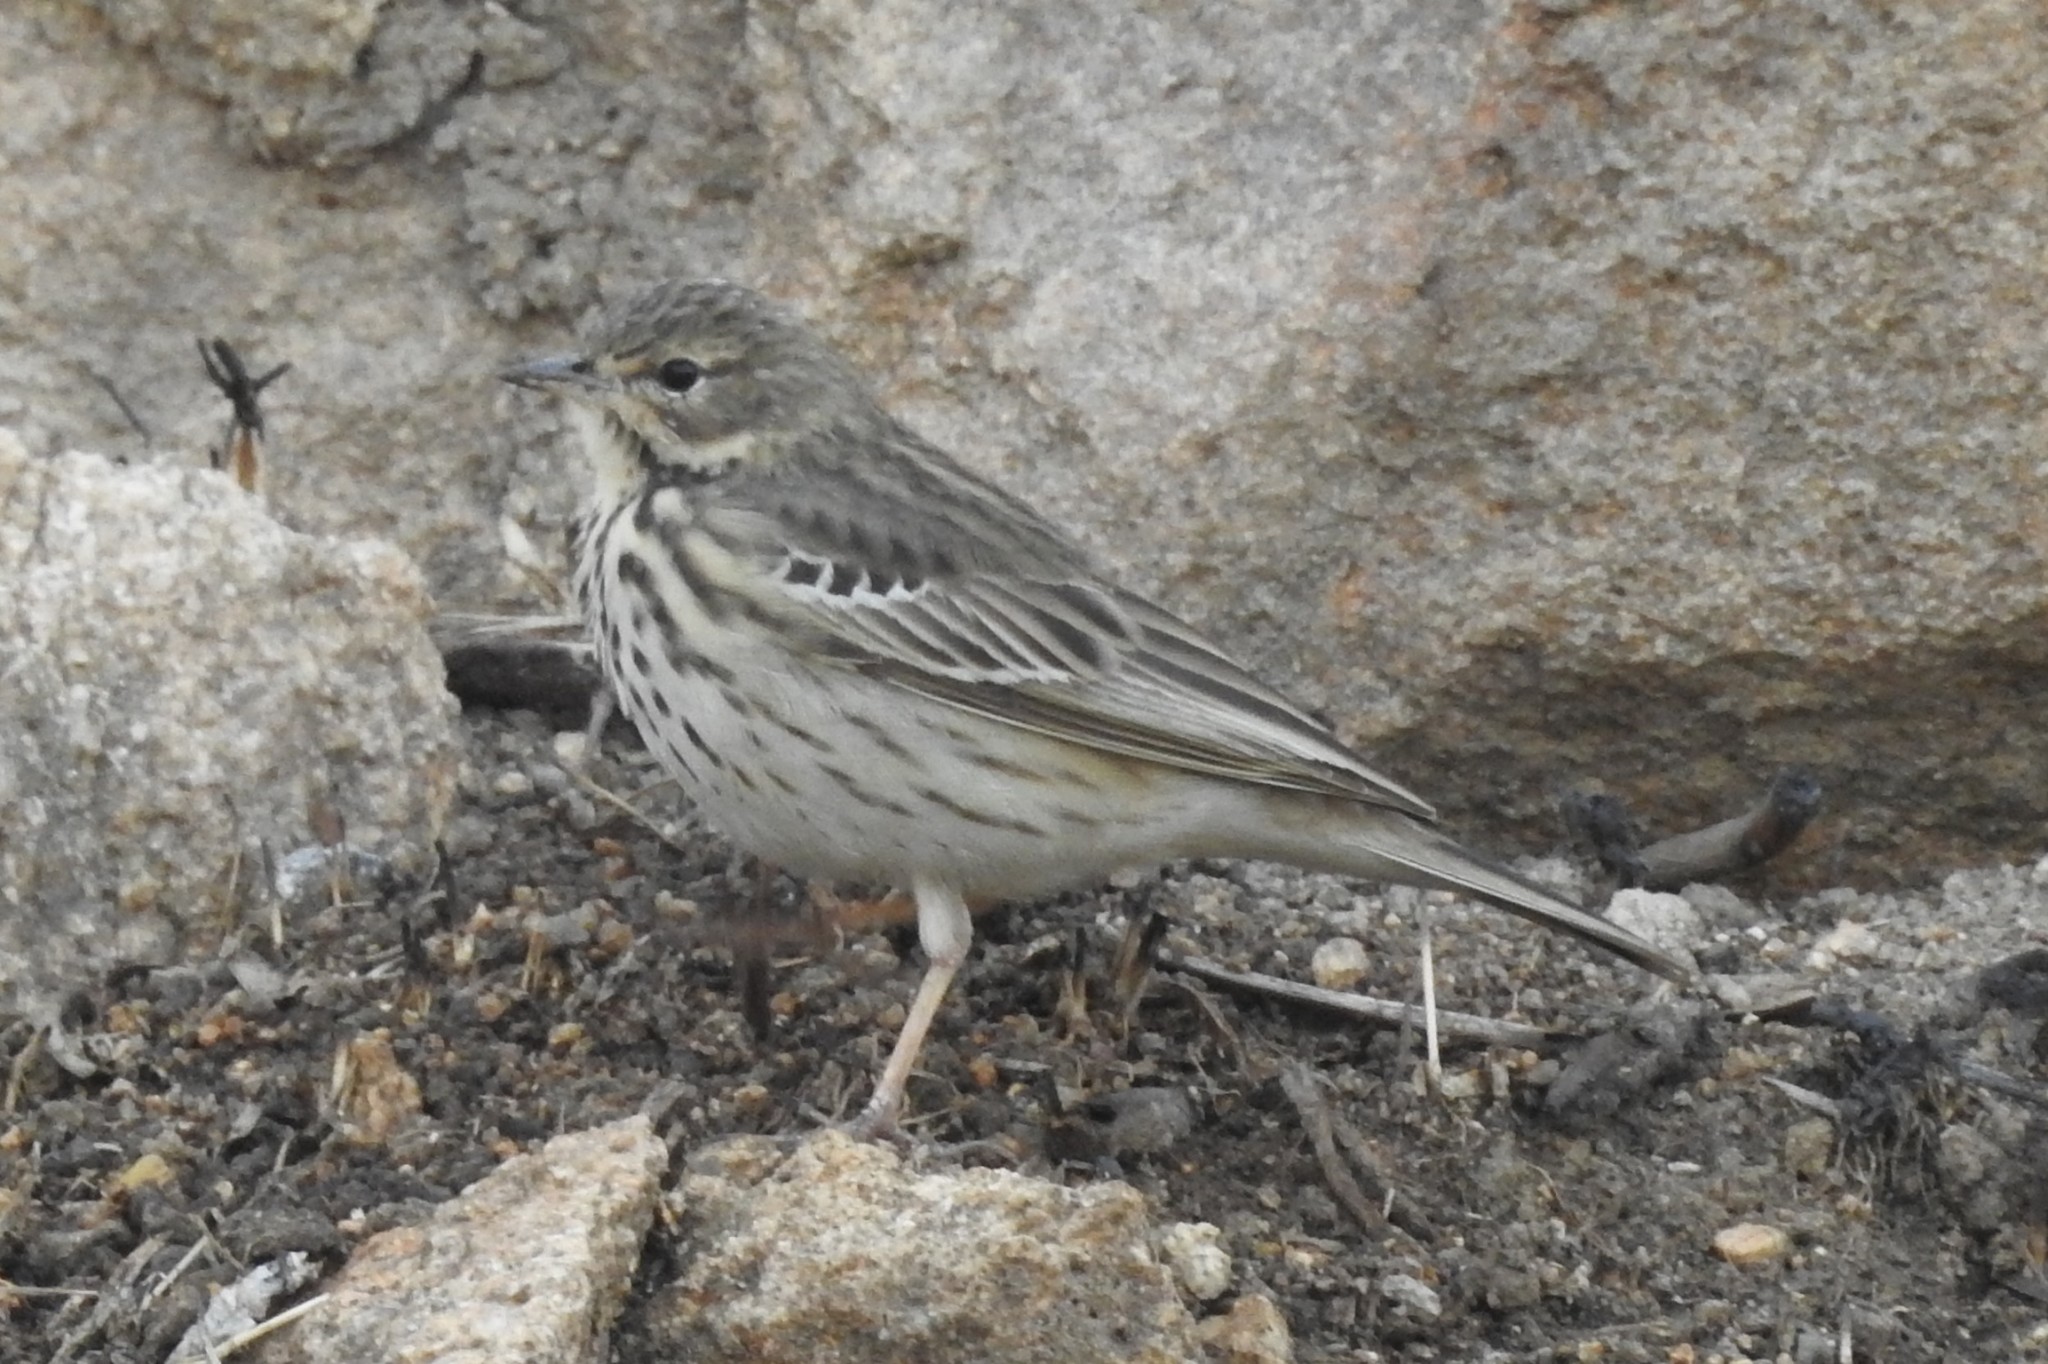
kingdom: Animalia
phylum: Chordata
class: Aves
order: Passeriformes
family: Motacillidae
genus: Anthus
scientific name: Anthus hodgsoni
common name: Olive-backed pipit
